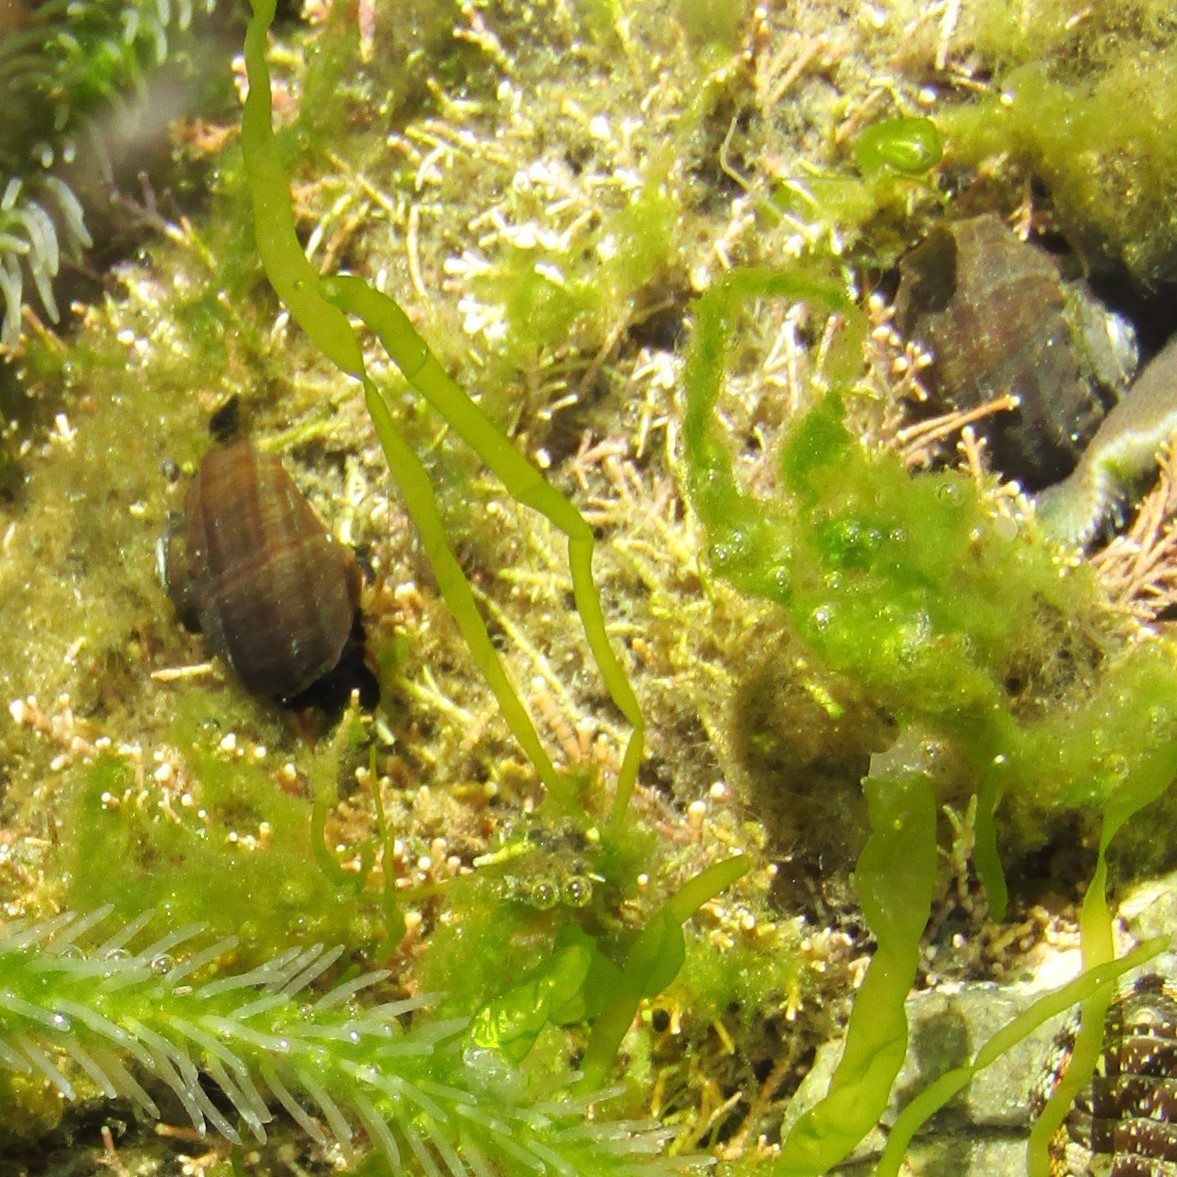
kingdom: Animalia
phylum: Mollusca
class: Gastropoda
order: Trochida
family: Turbinidae
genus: Lunella
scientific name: Lunella smaragda
